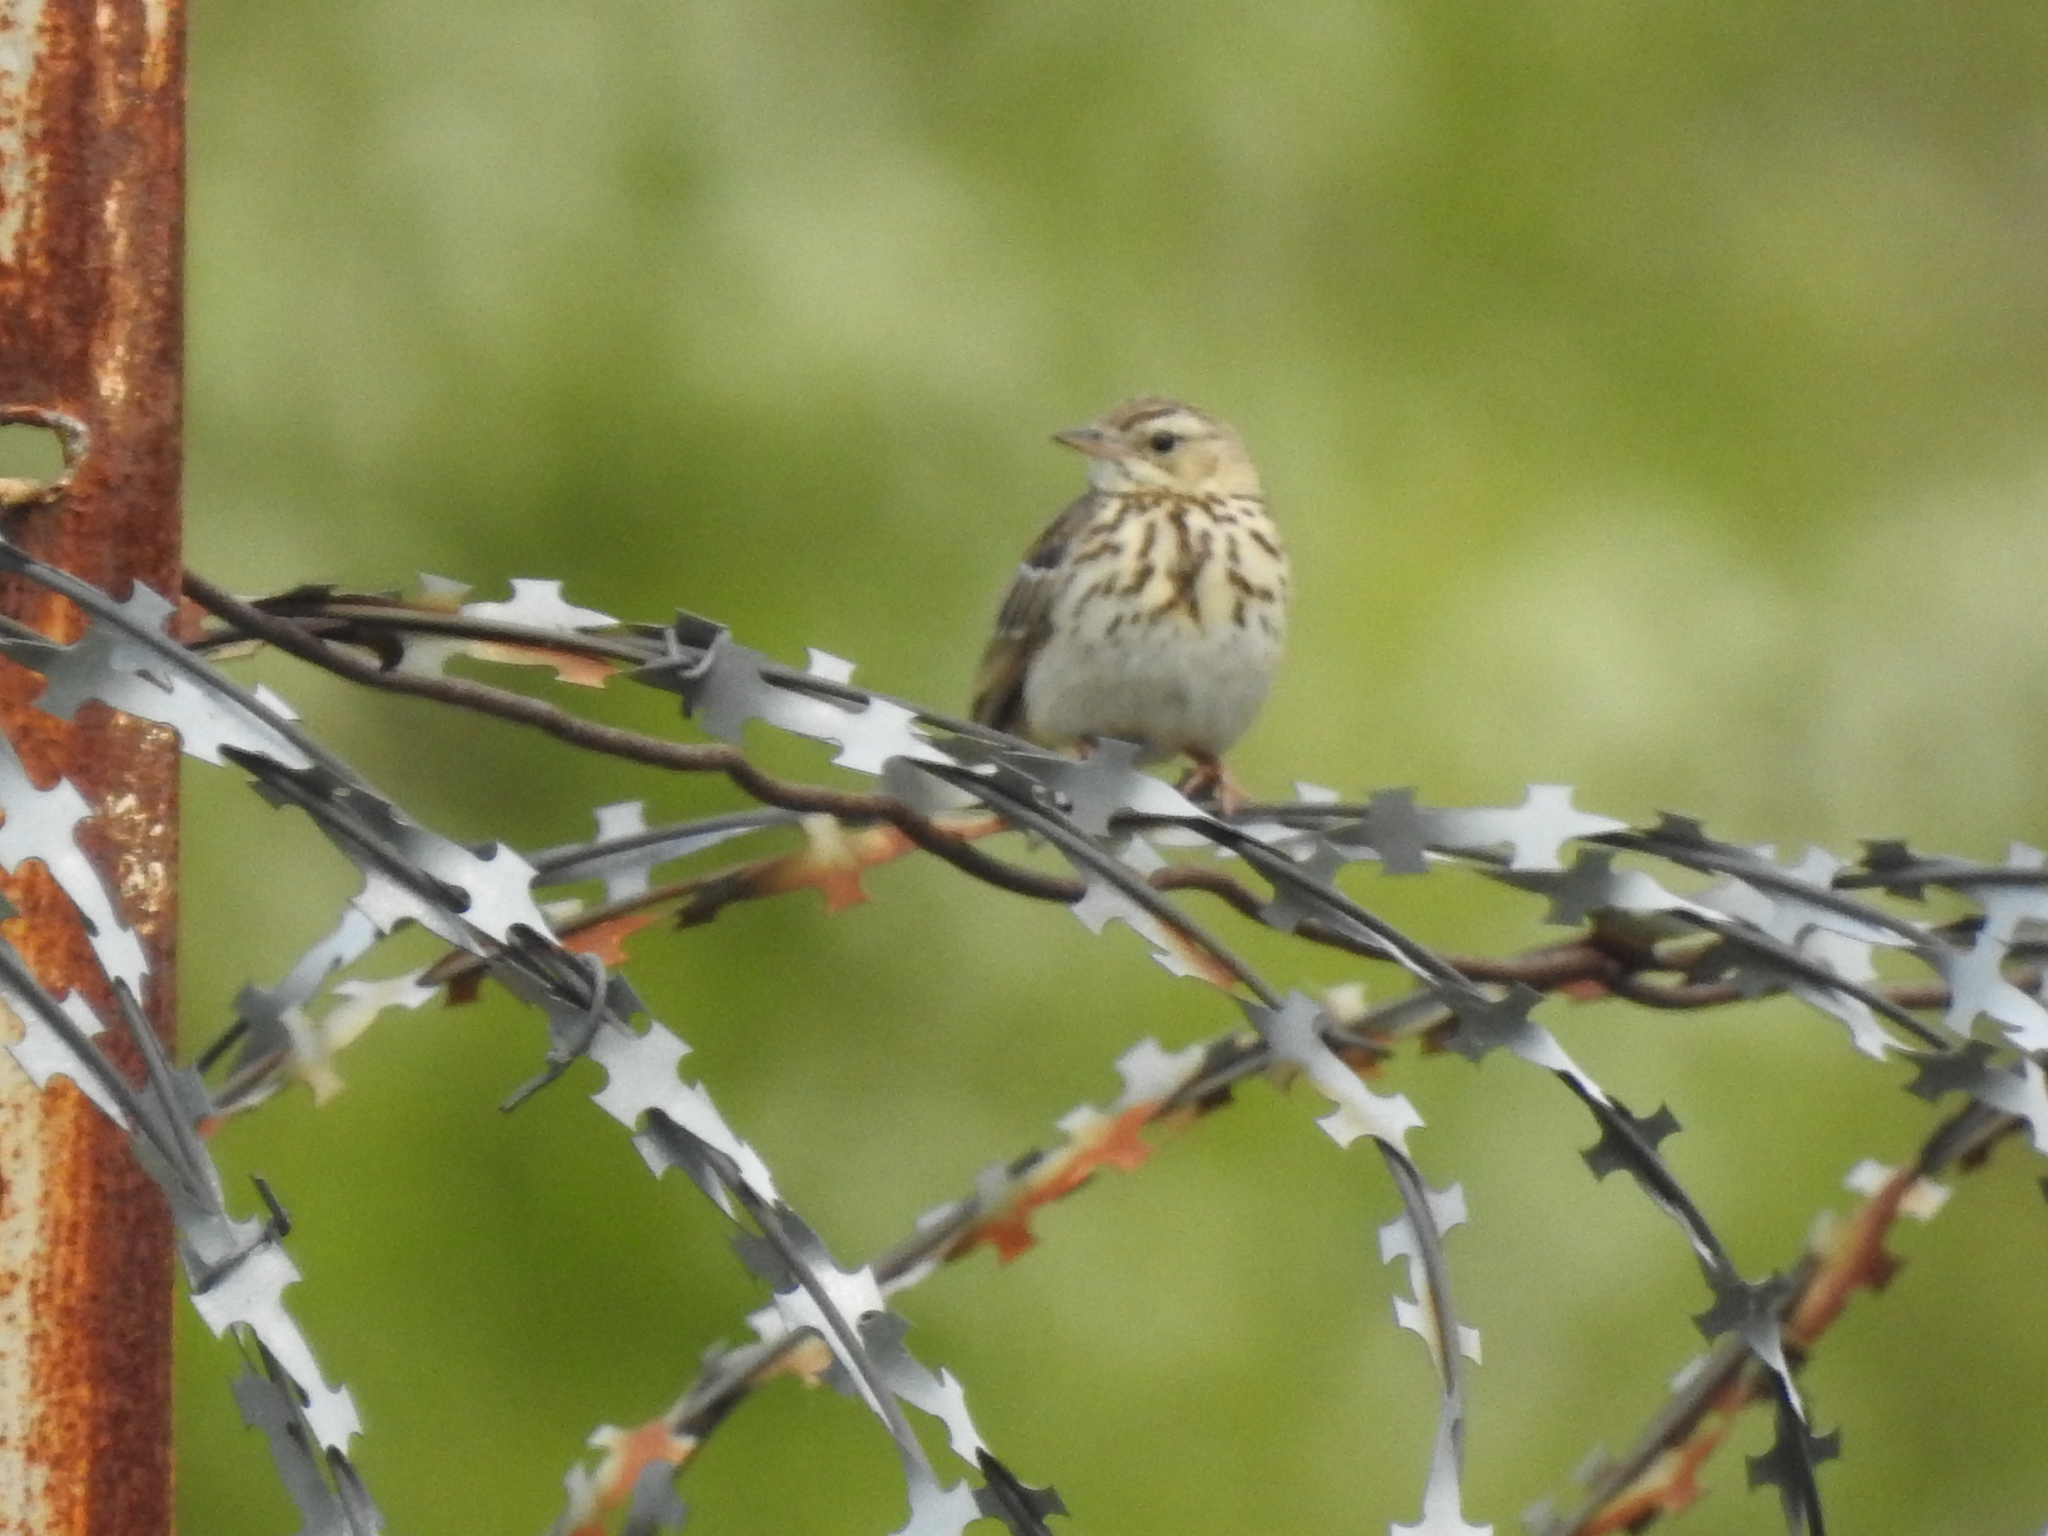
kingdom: Animalia
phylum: Chordata
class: Aves
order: Passeriformes
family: Motacillidae
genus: Anthus
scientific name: Anthus trivialis
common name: Tree pipit
